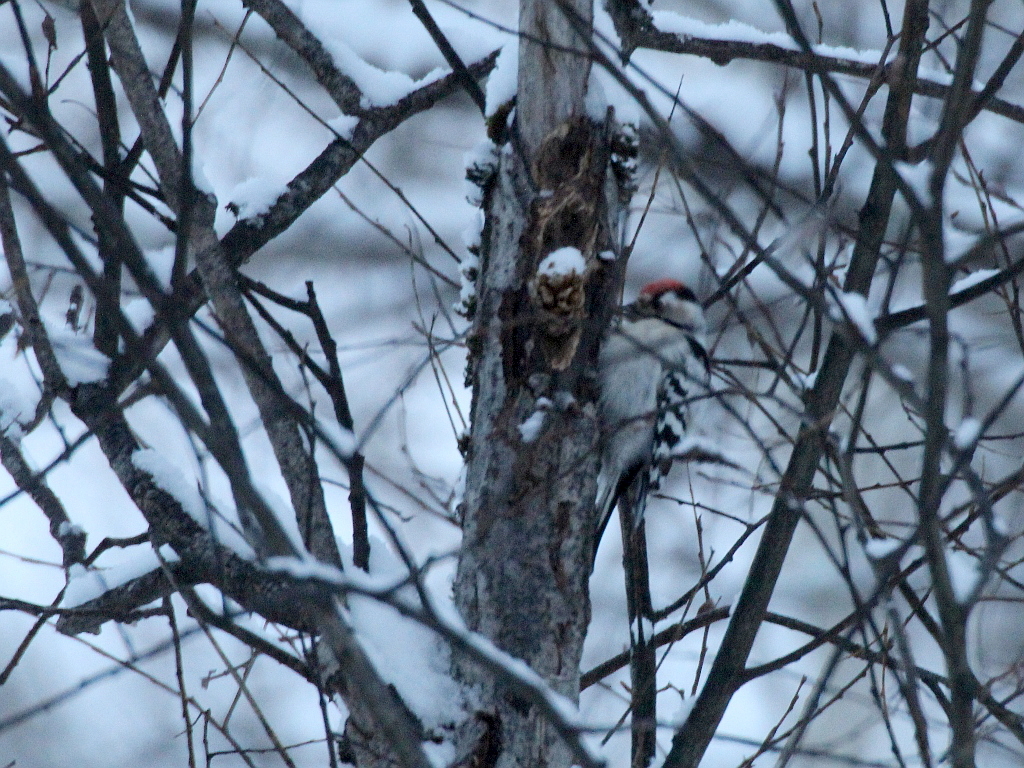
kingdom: Animalia
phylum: Chordata
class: Aves
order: Piciformes
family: Picidae
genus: Dryobates
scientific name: Dryobates minor
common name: Lesser spotted woodpecker
